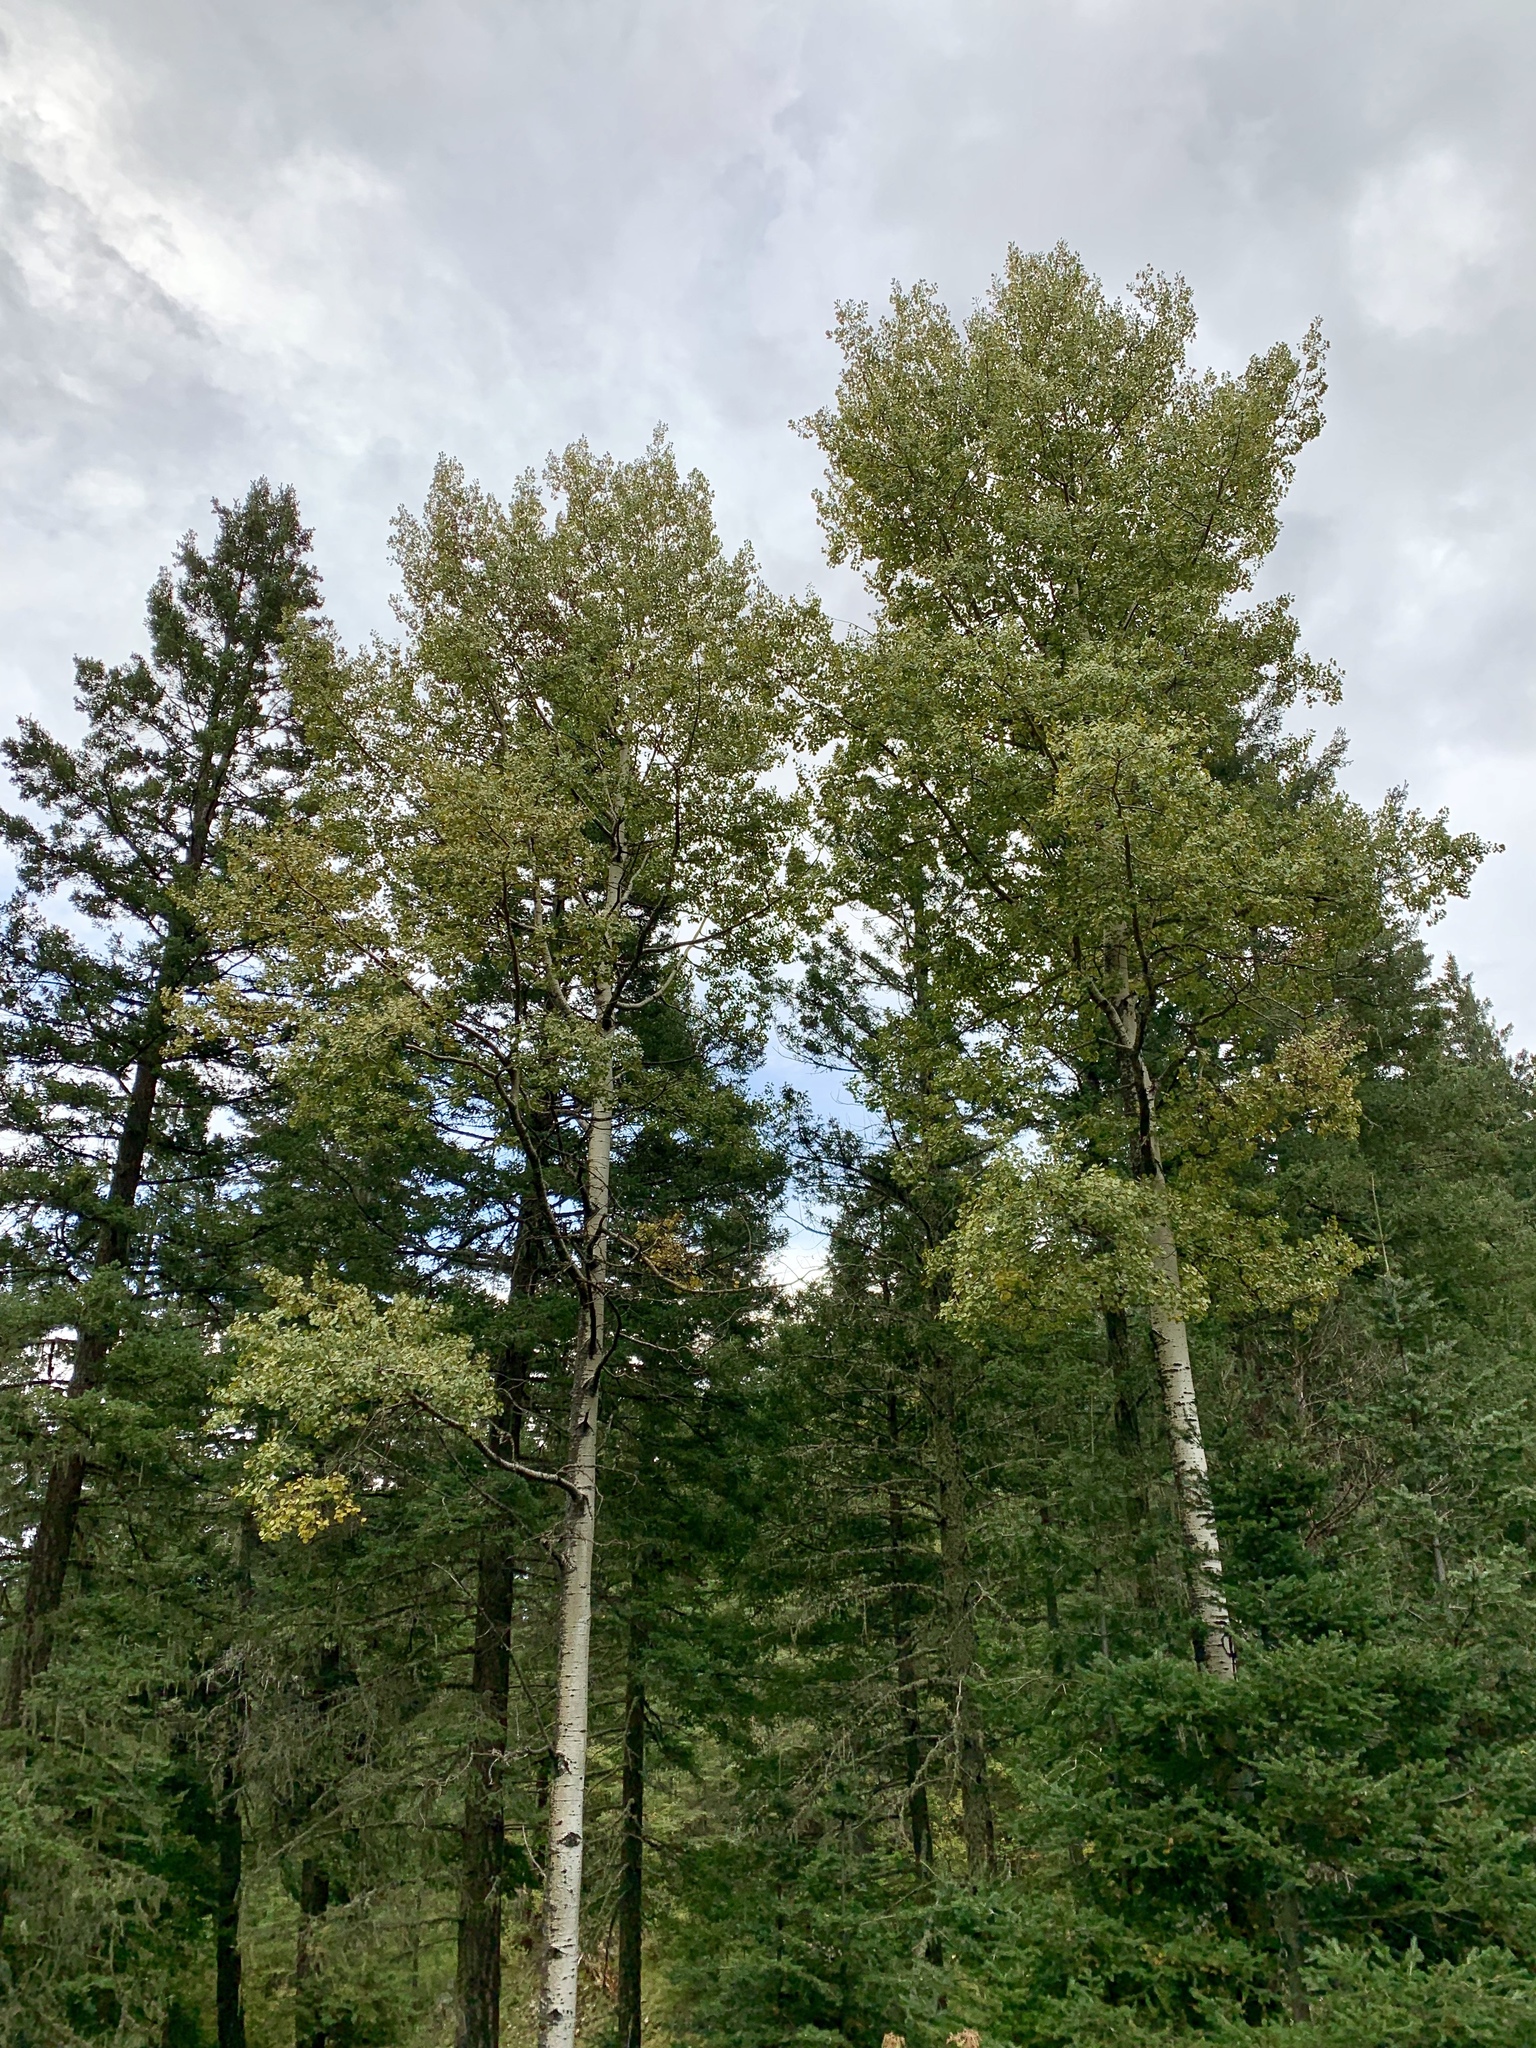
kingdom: Plantae
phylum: Tracheophyta
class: Magnoliopsida
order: Malpighiales
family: Salicaceae
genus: Populus
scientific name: Populus tremuloides
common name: Quaking aspen
